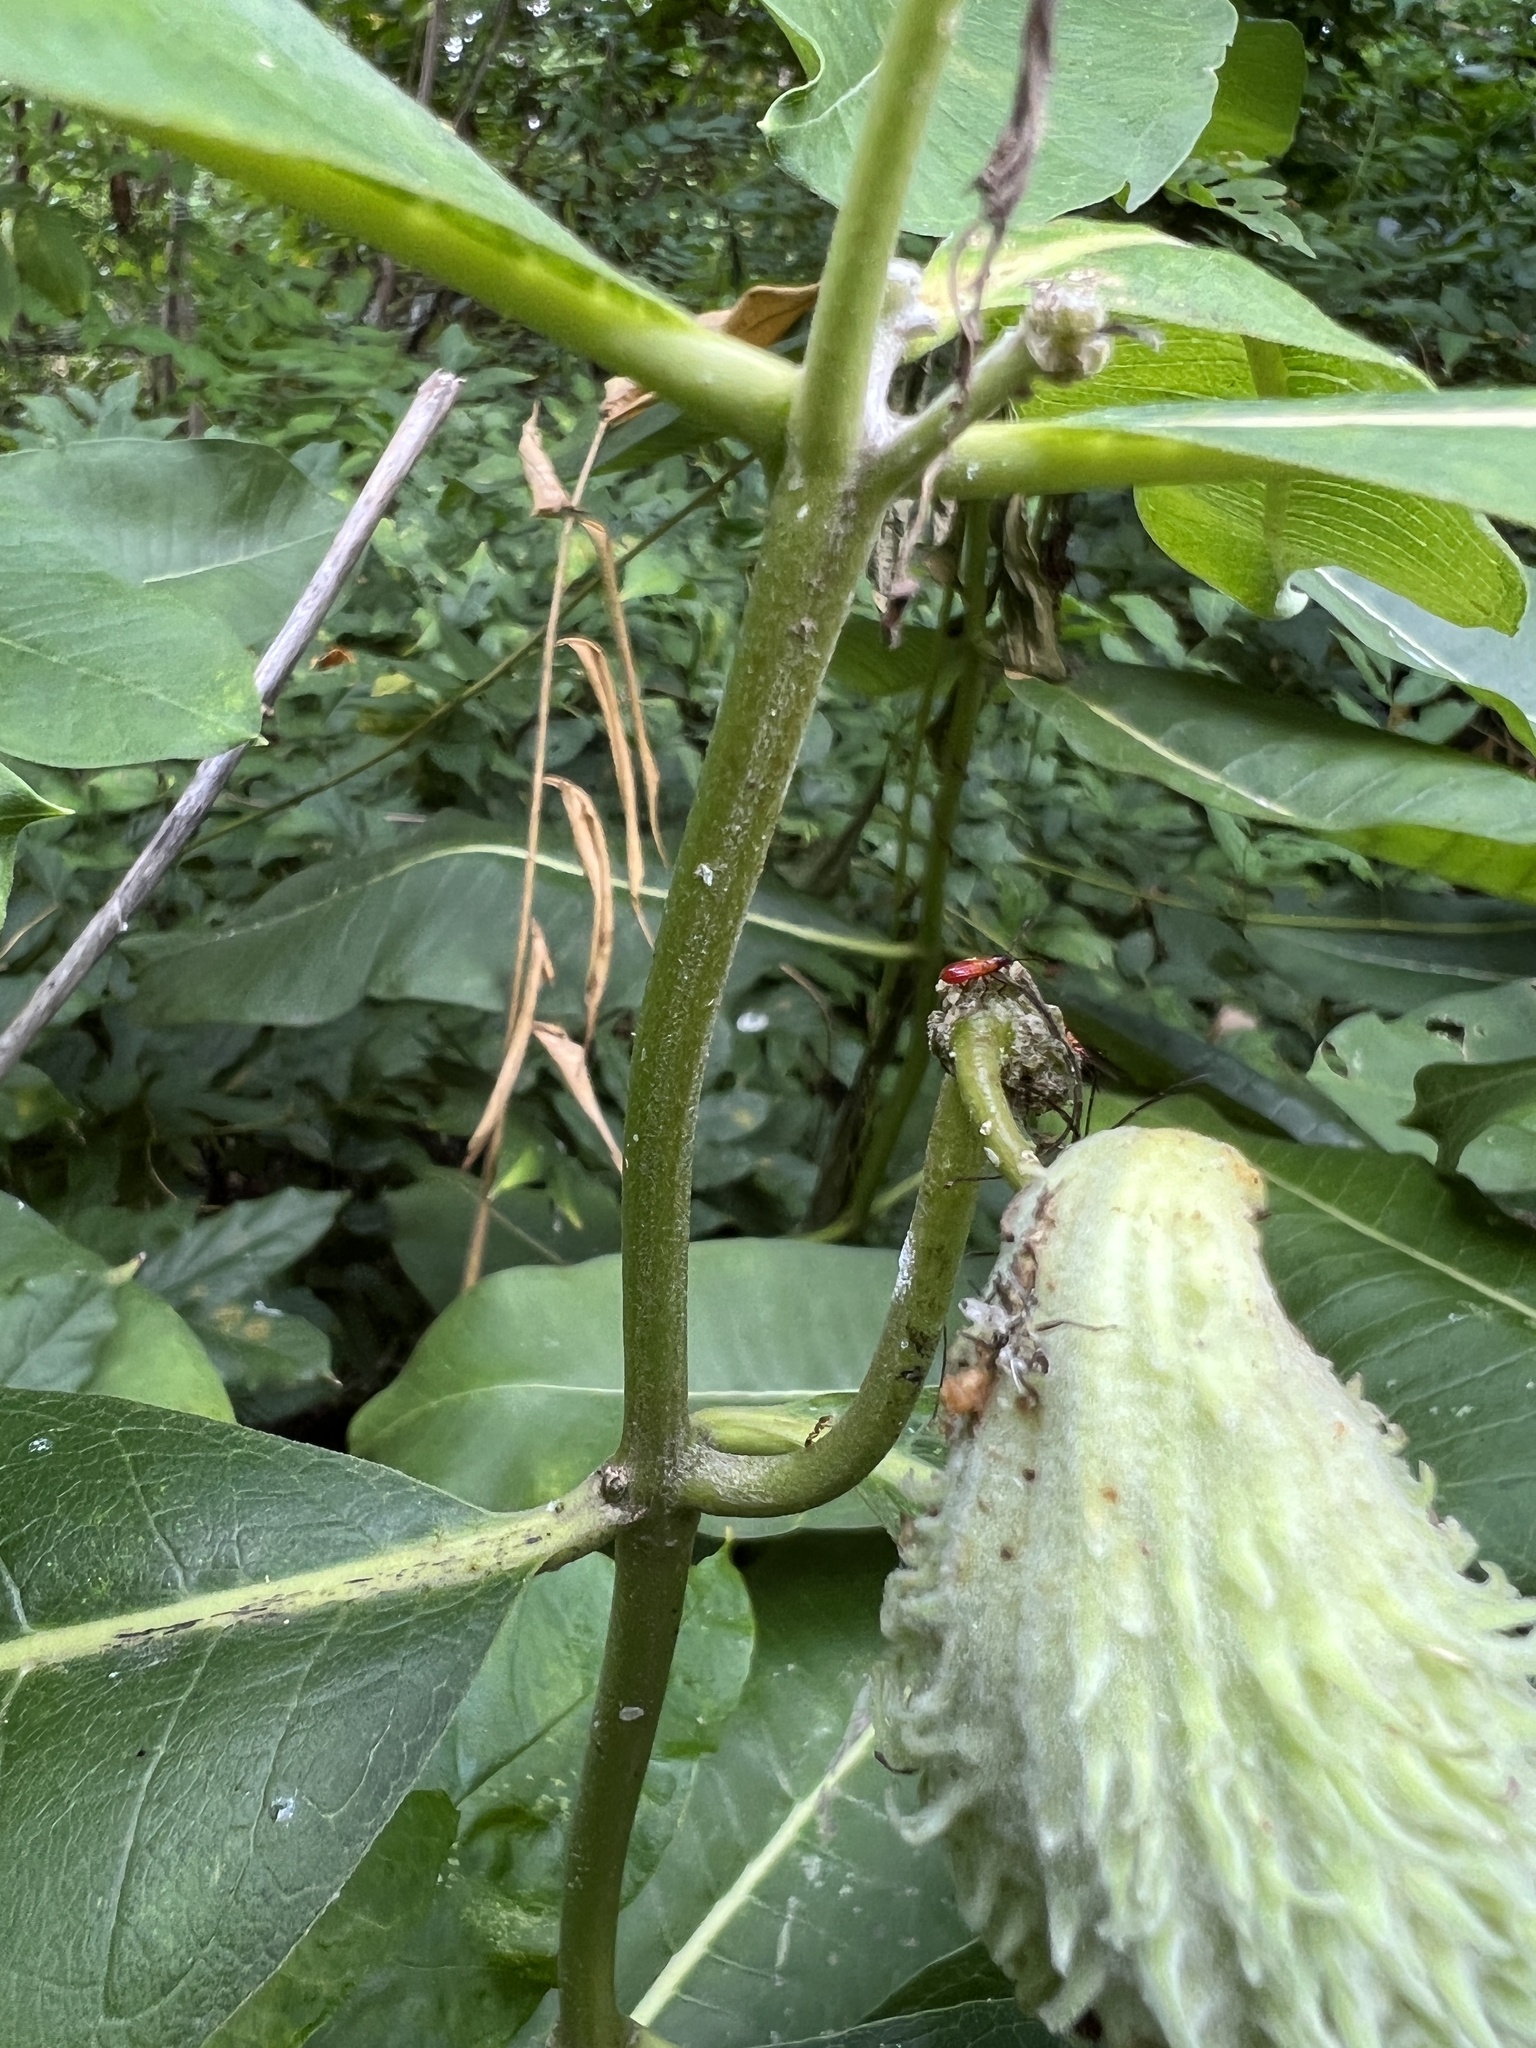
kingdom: Animalia
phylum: Arthropoda
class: Insecta
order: Hemiptera
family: Lygaeidae
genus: Oncopeltus
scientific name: Oncopeltus fasciatus
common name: Large milkweed bug
